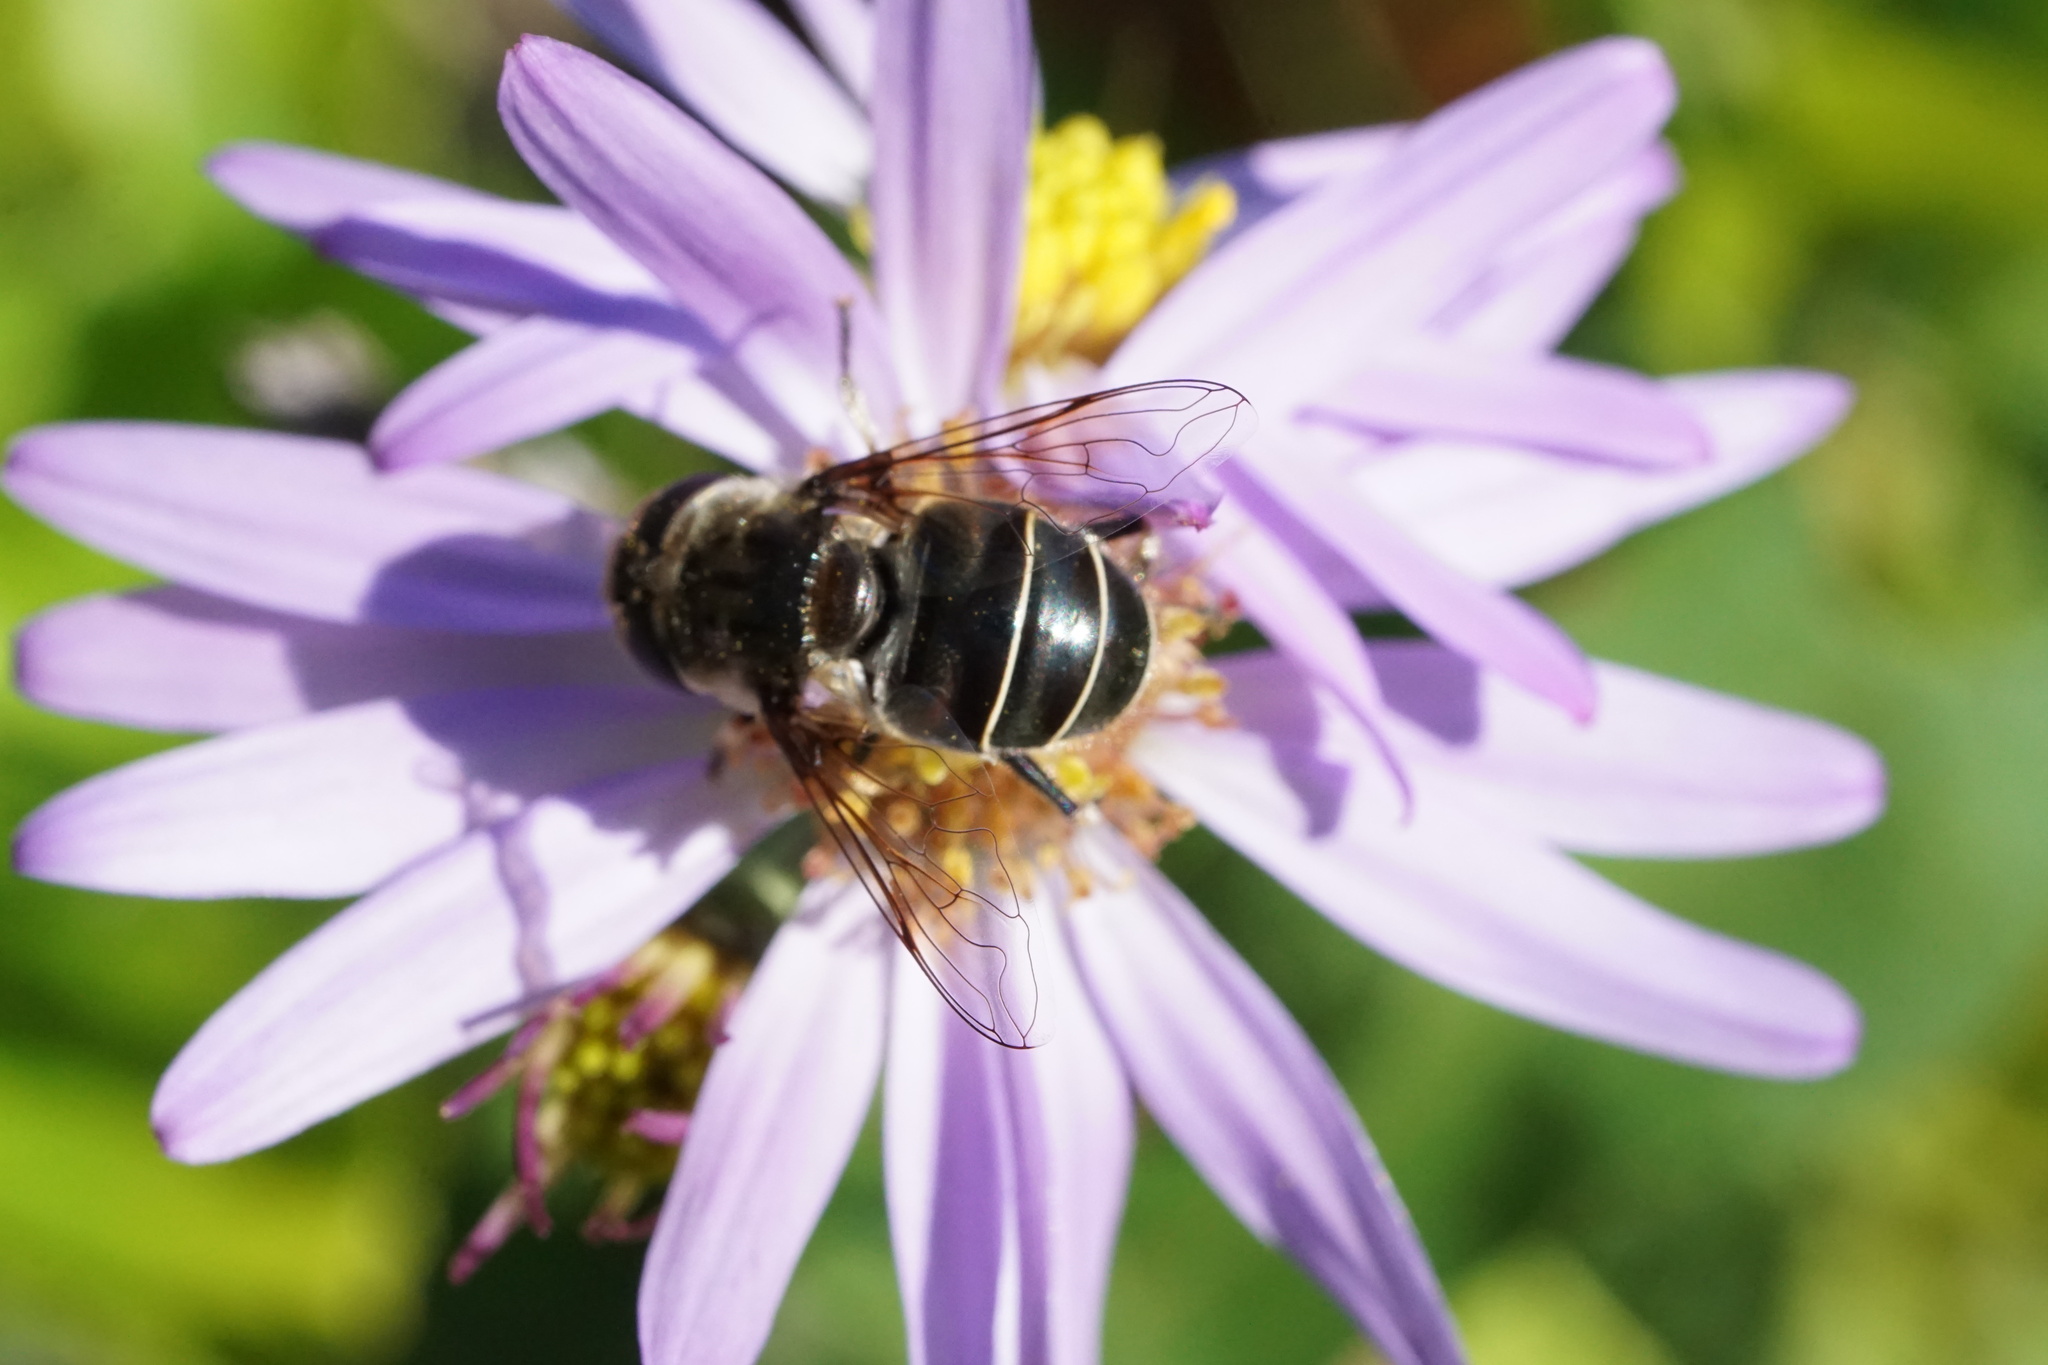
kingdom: Animalia
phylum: Arthropoda
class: Insecta
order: Diptera
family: Syrphidae
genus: Eristalis
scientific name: Eristalis dimidiata
